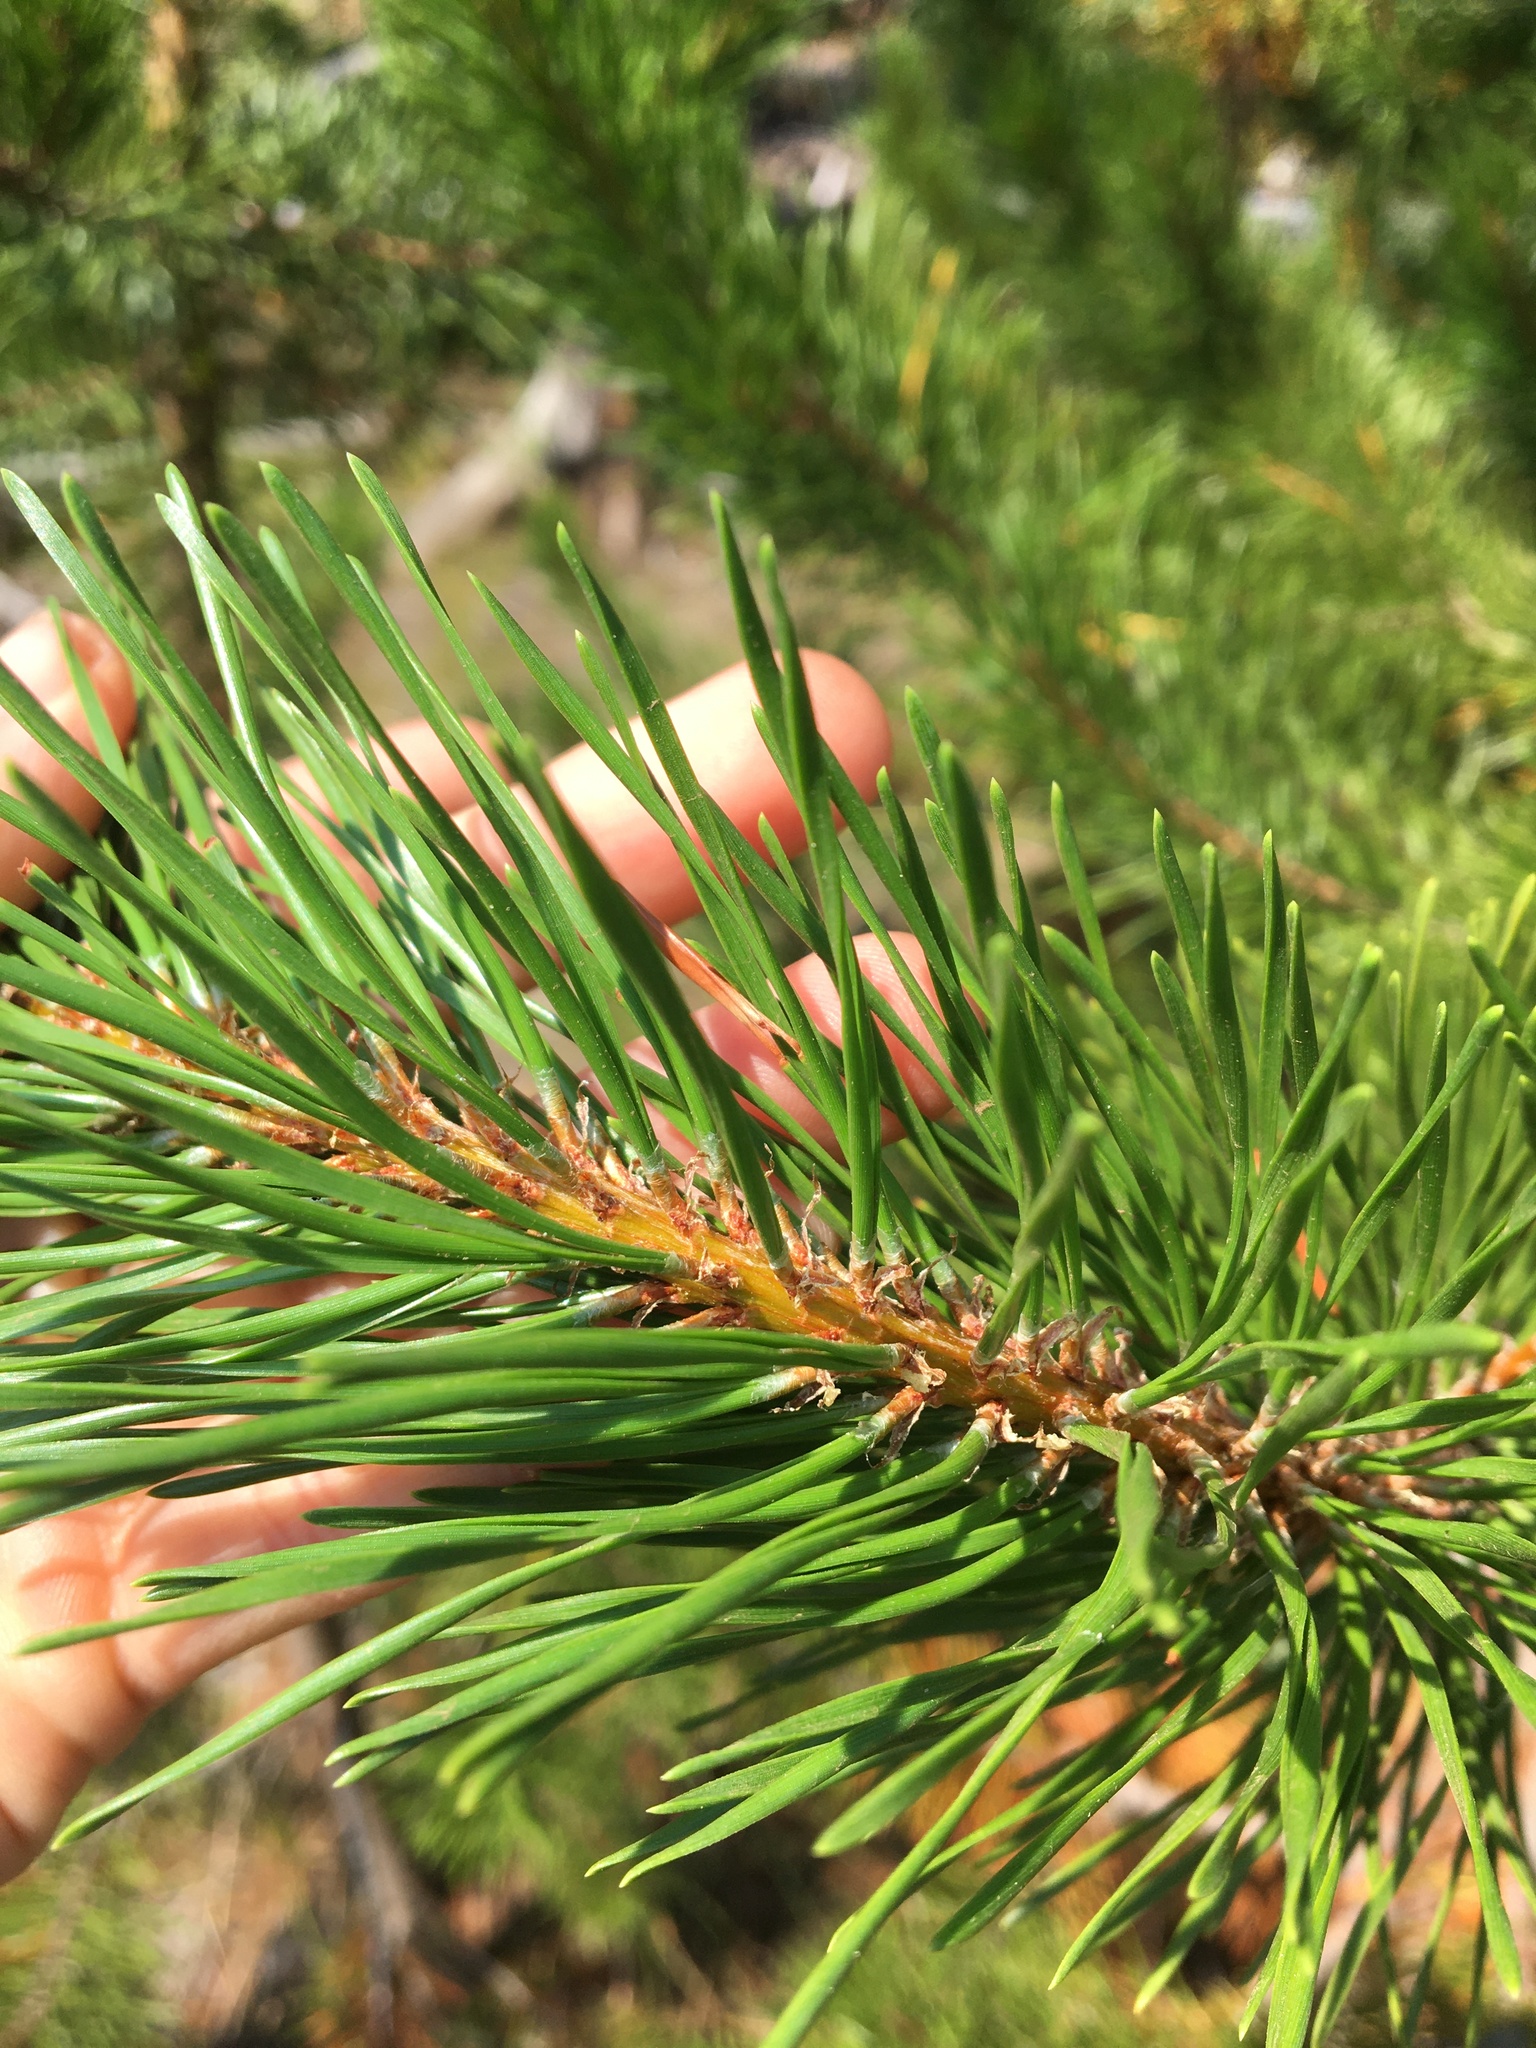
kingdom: Plantae
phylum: Tracheophyta
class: Pinopsida
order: Pinales
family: Pinaceae
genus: Pinus
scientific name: Pinus contorta
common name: Lodgepole pine
